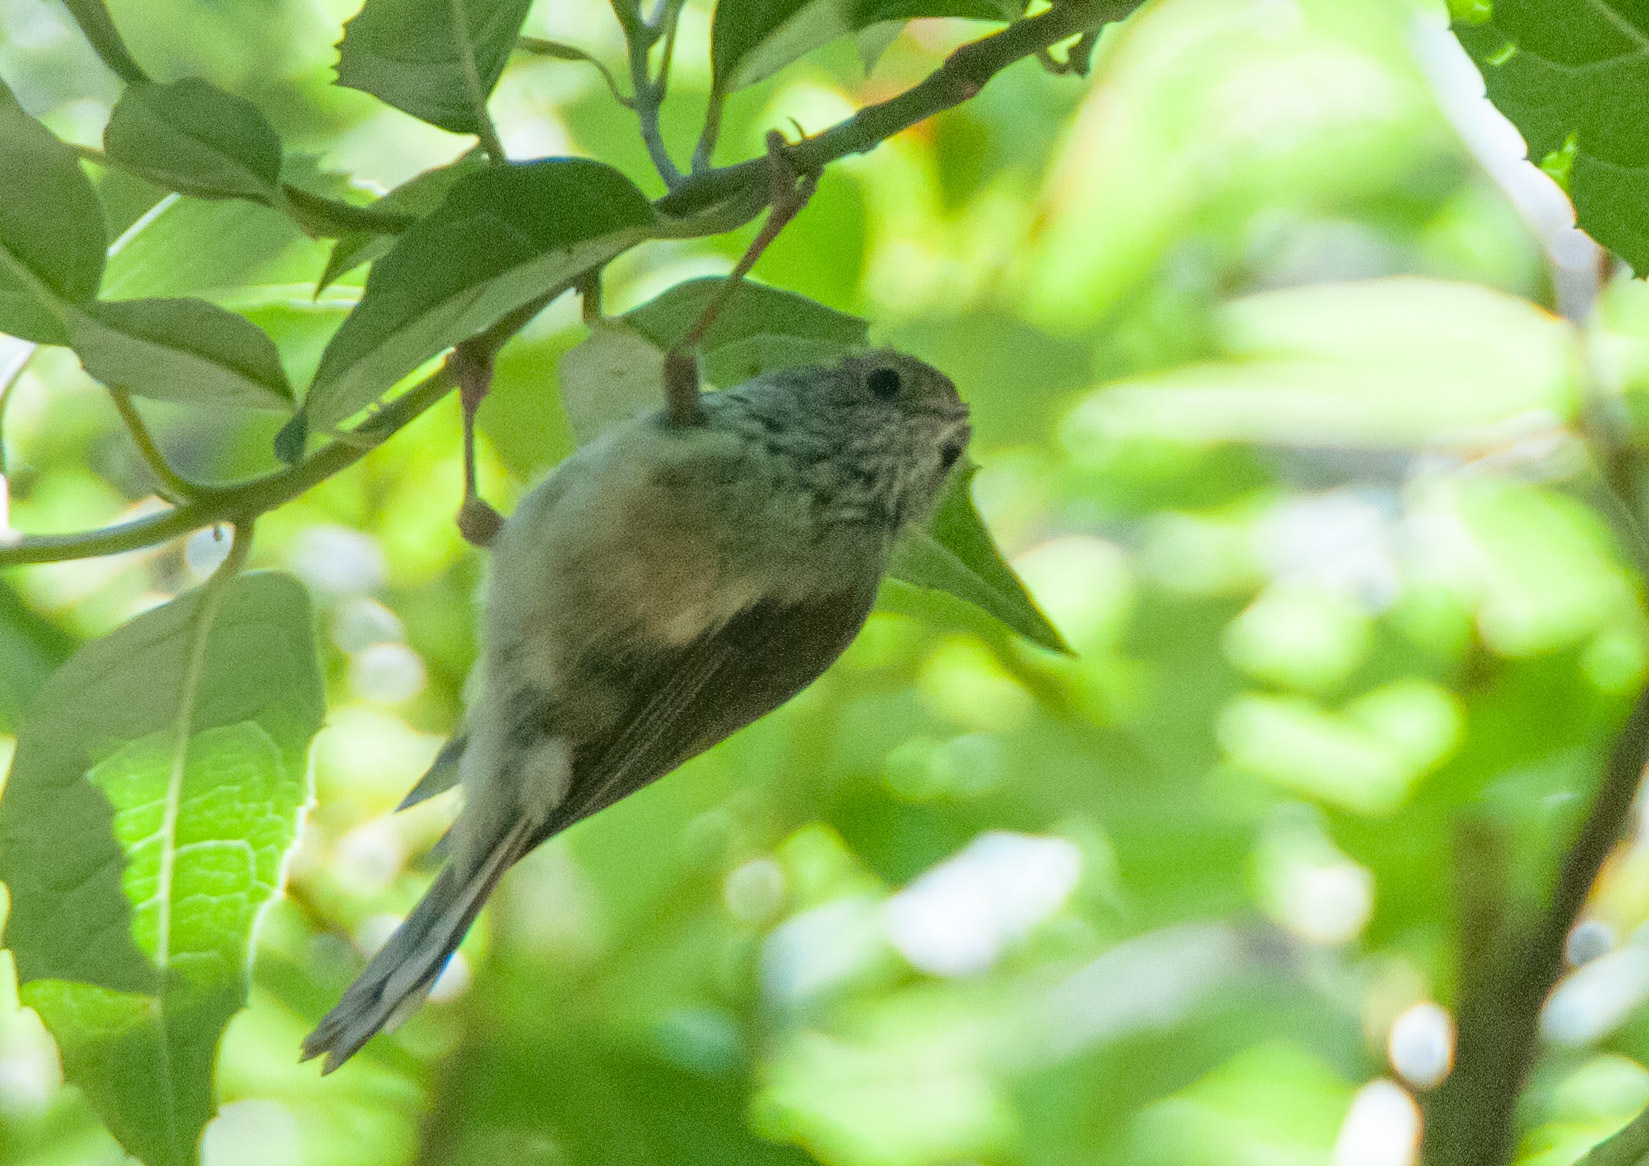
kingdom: Animalia
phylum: Chordata
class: Aves
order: Passeriformes
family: Acanthizidae
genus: Acanthiza
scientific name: Acanthiza pusilla
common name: Brown thornbill
